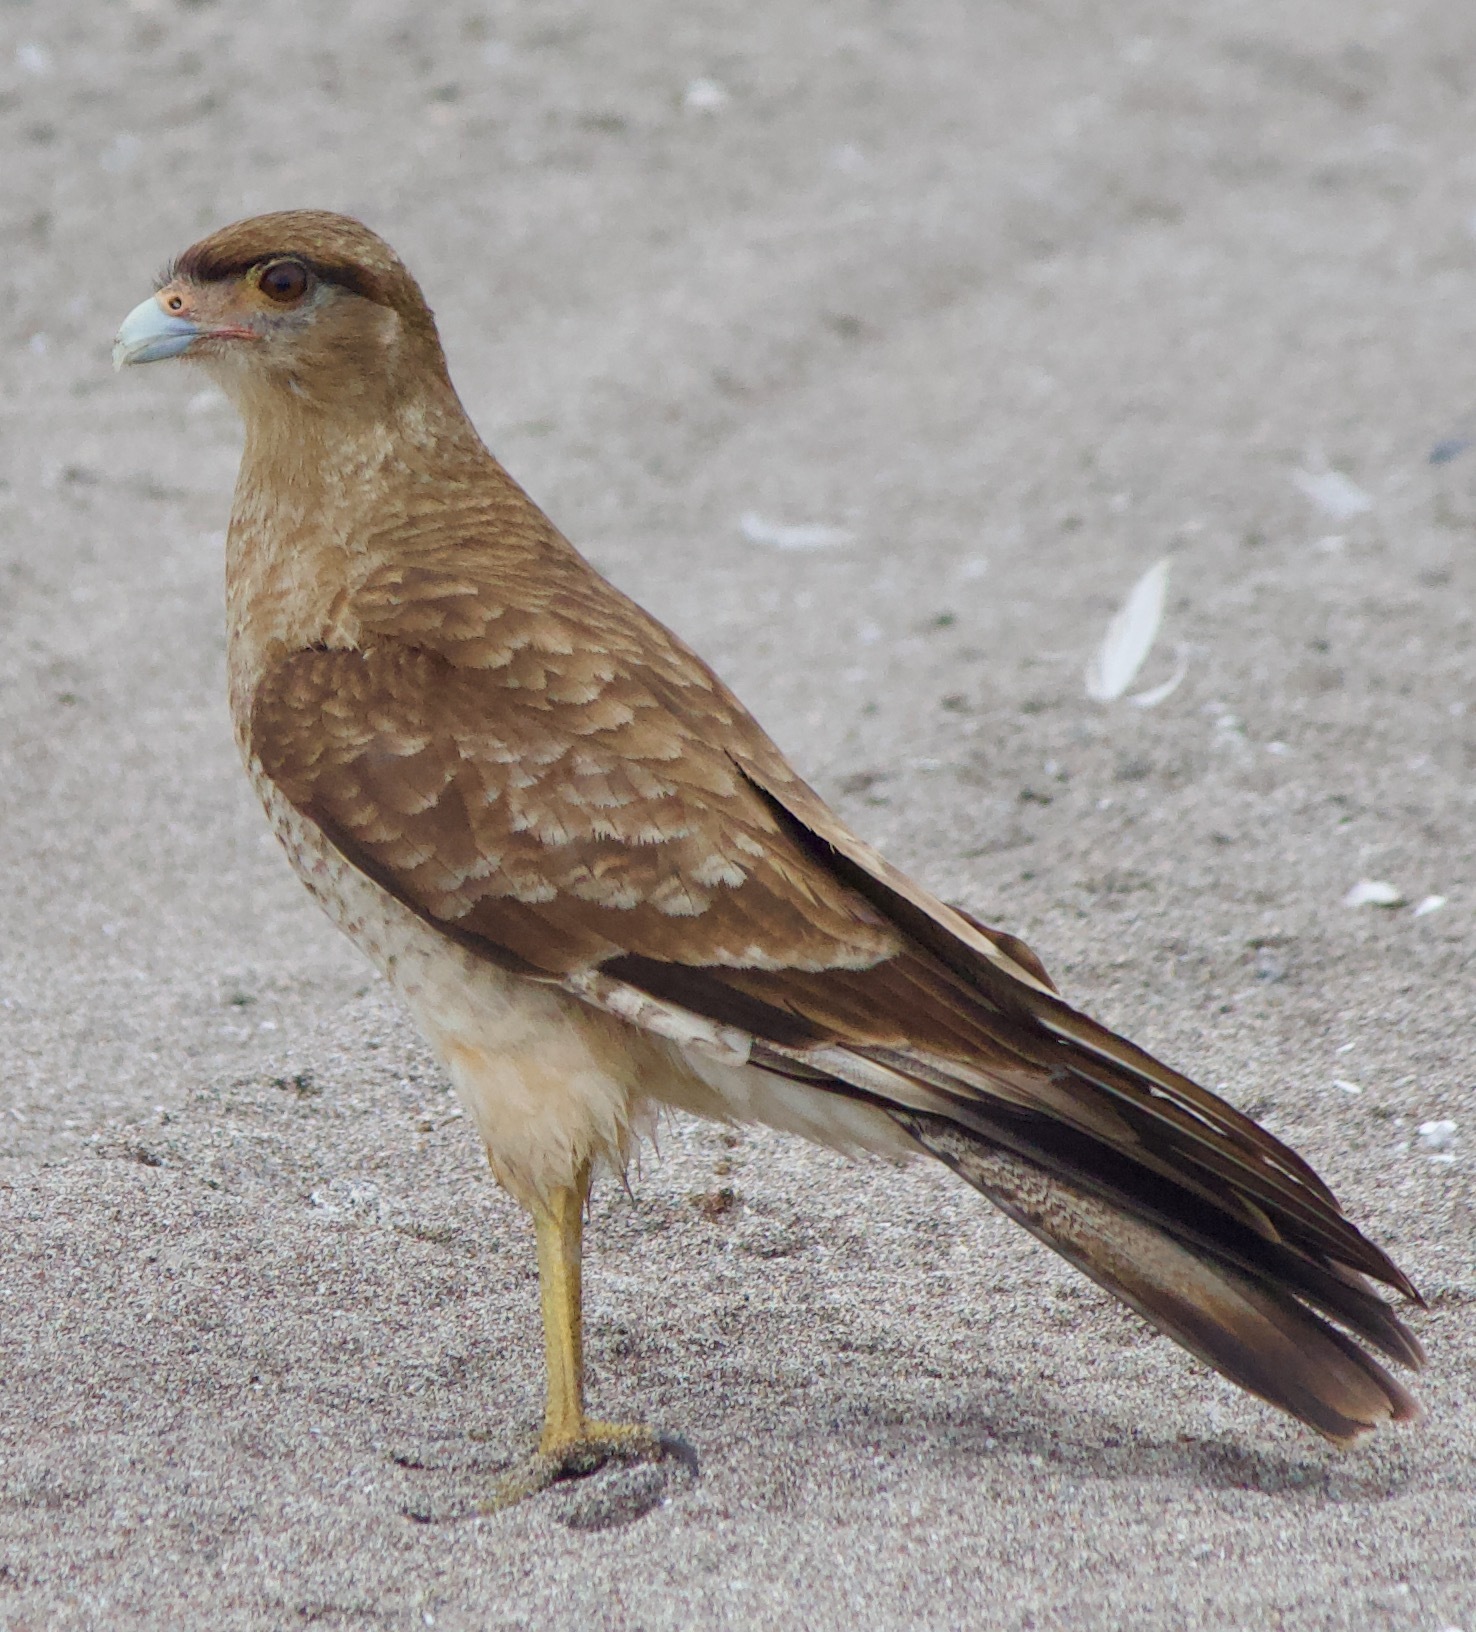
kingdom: Animalia
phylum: Chordata
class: Aves
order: Falconiformes
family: Falconidae
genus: Daptrius
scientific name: Daptrius
